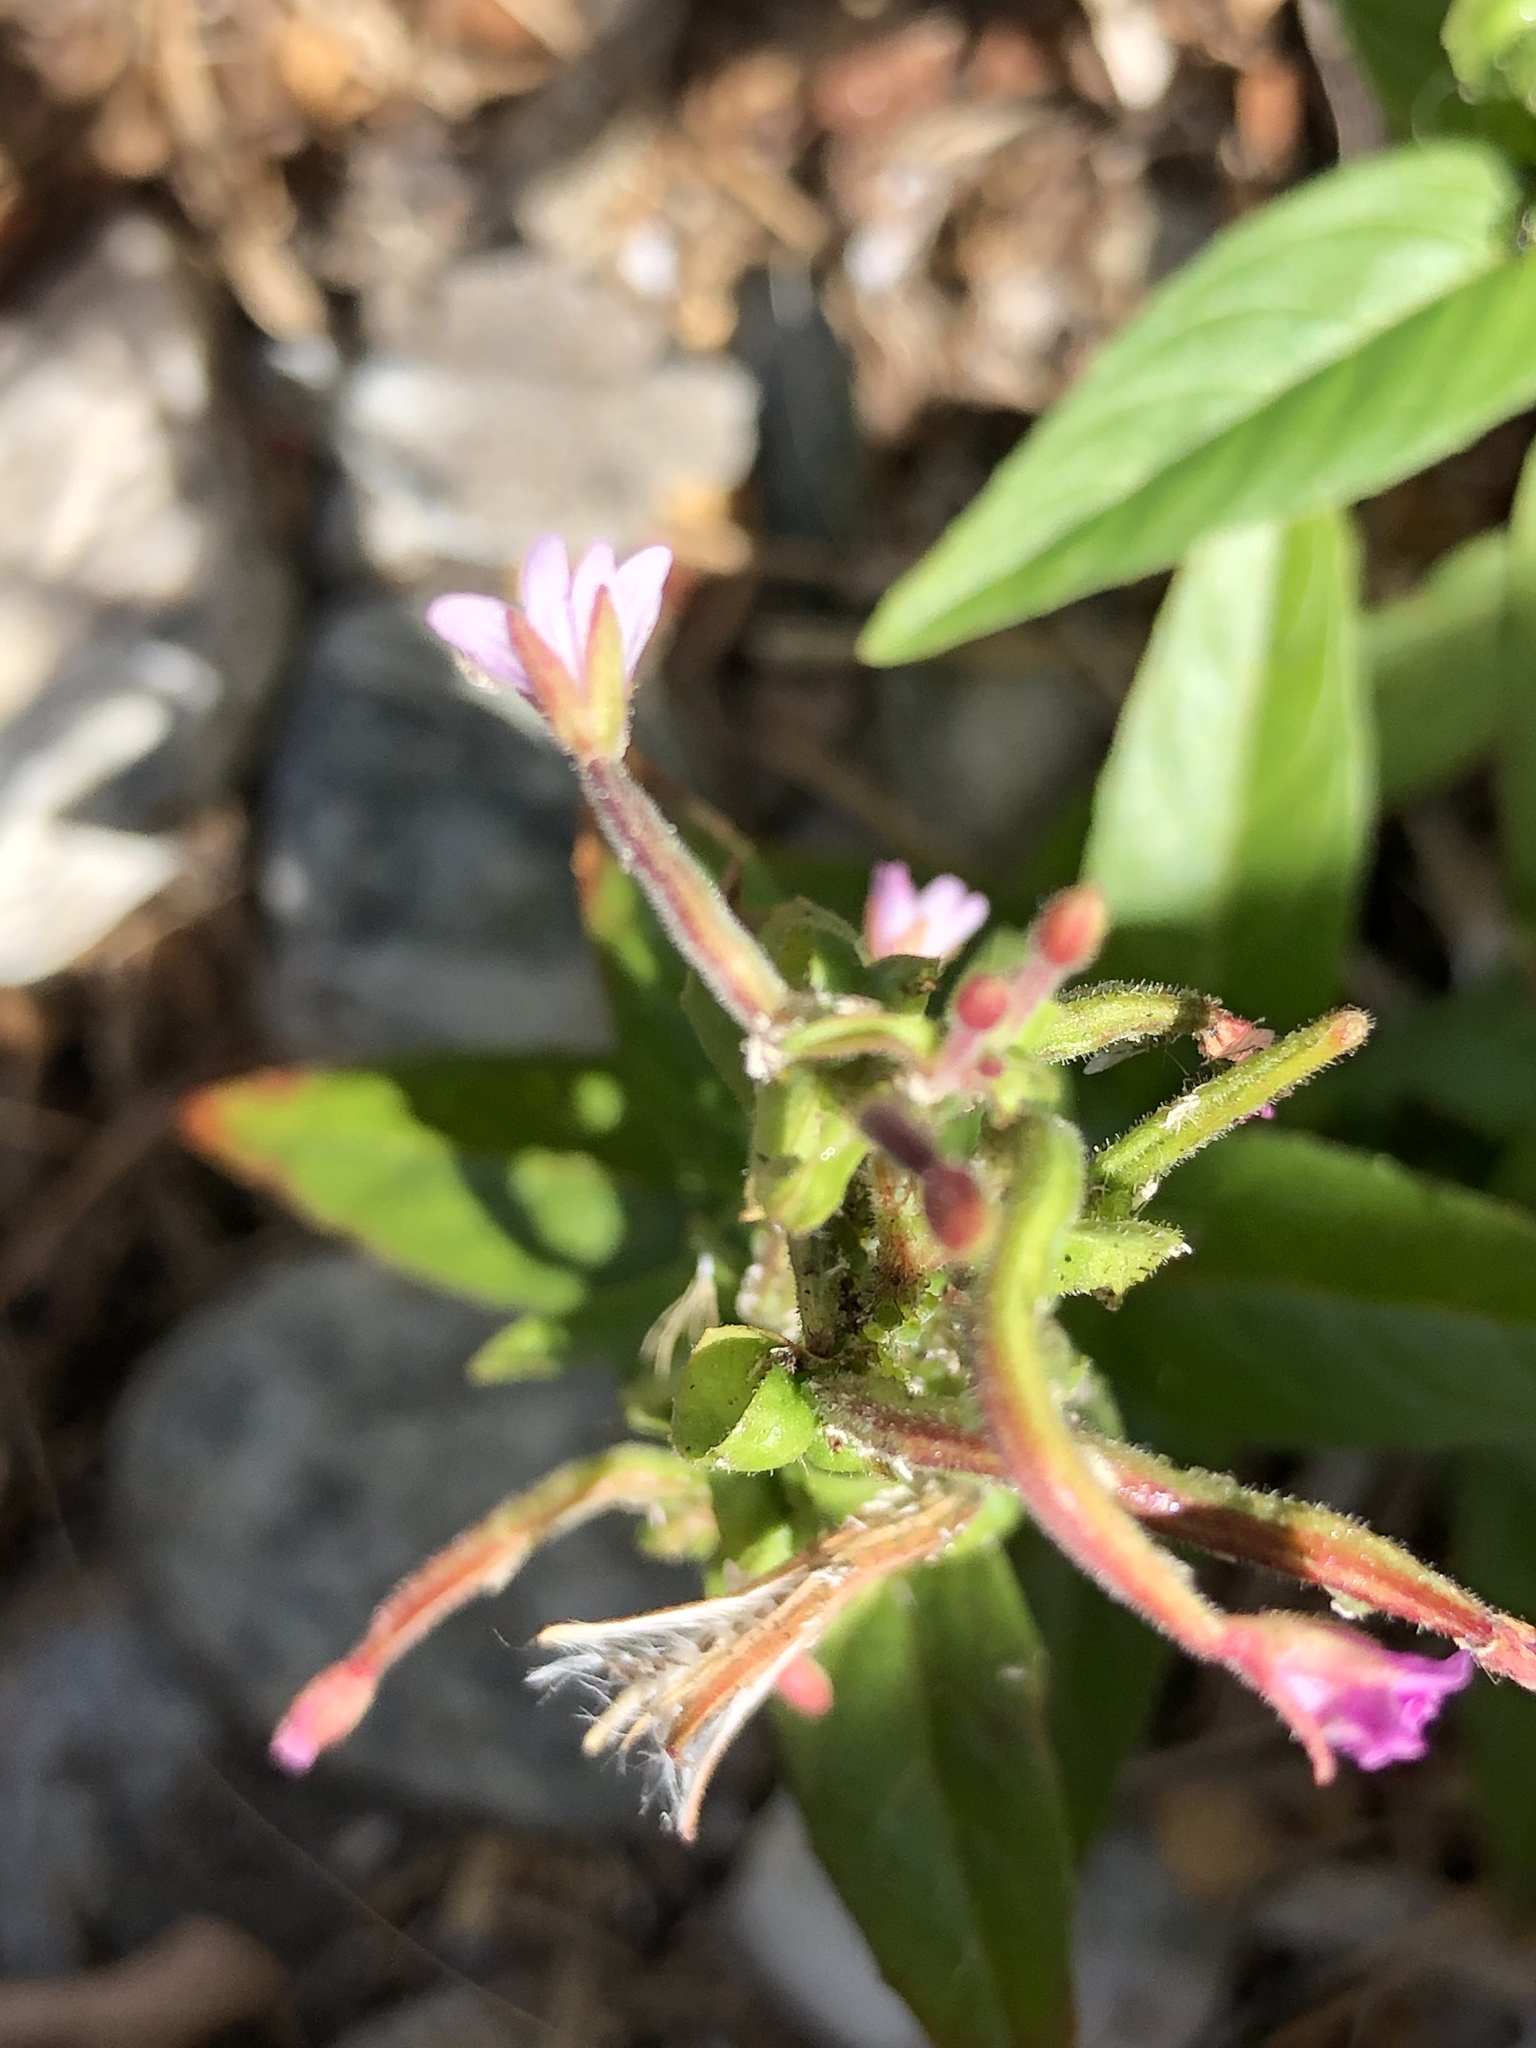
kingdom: Plantae
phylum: Tracheophyta
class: Magnoliopsida
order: Myrtales
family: Onagraceae
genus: Epilobium
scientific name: Epilobium ciliatum
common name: American willowherb
